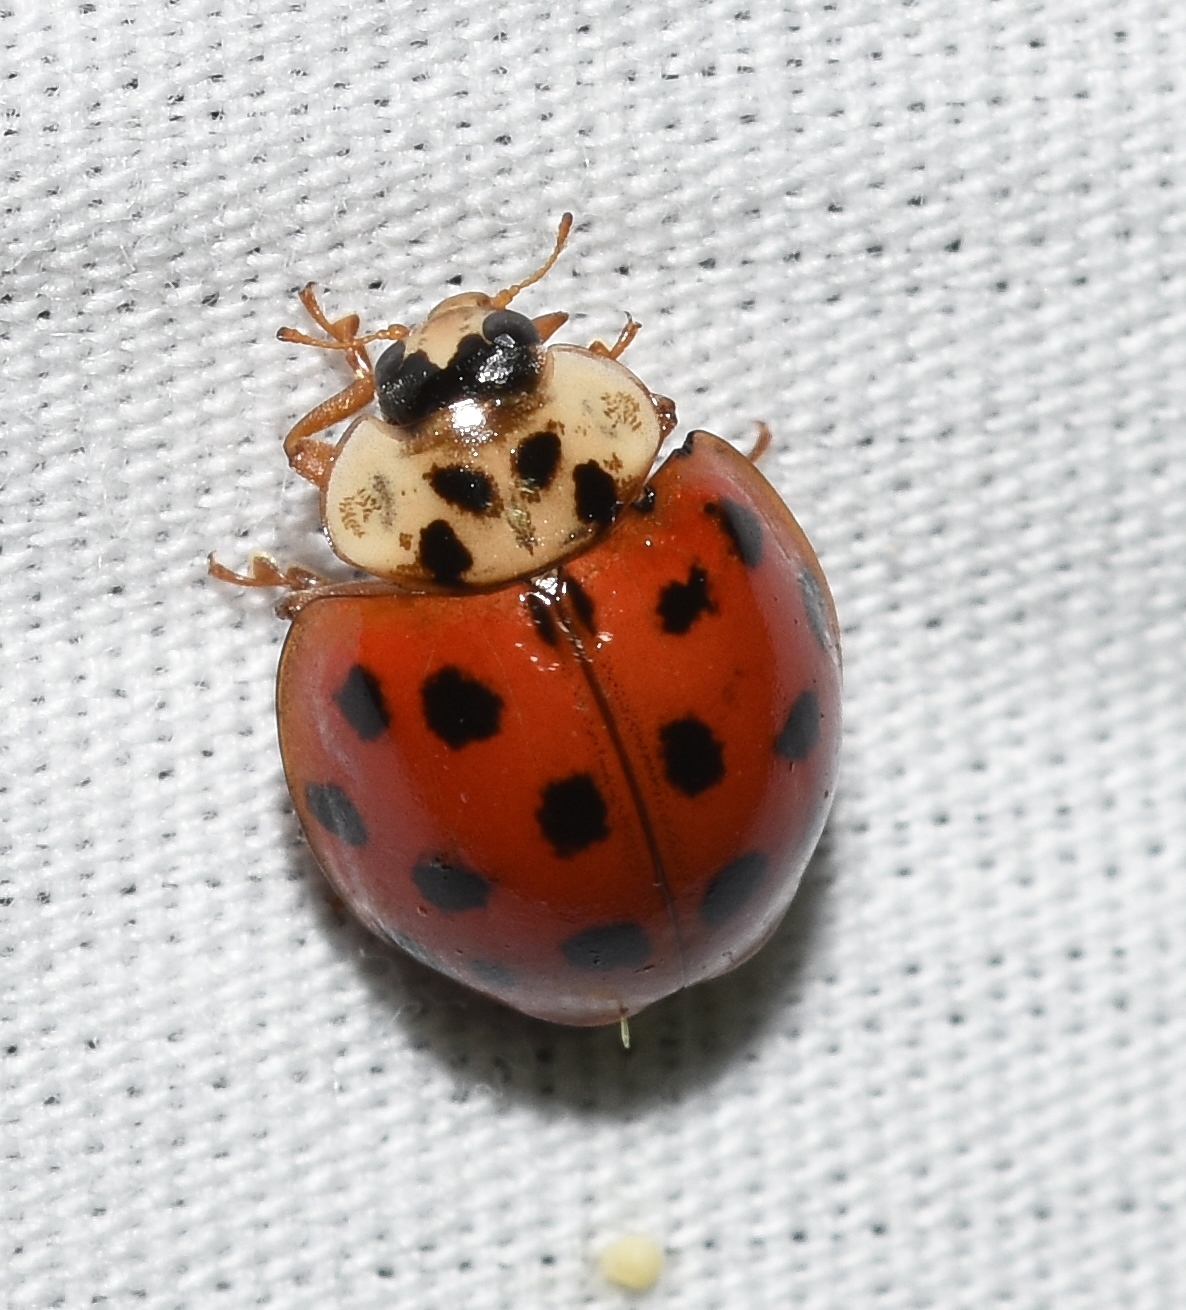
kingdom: Fungi
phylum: Ascomycota
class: Laboulbeniomycetes
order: Laboulbeniales
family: Laboulbeniaceae
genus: Hesperomyces
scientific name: Hesperomyces harmoniae
